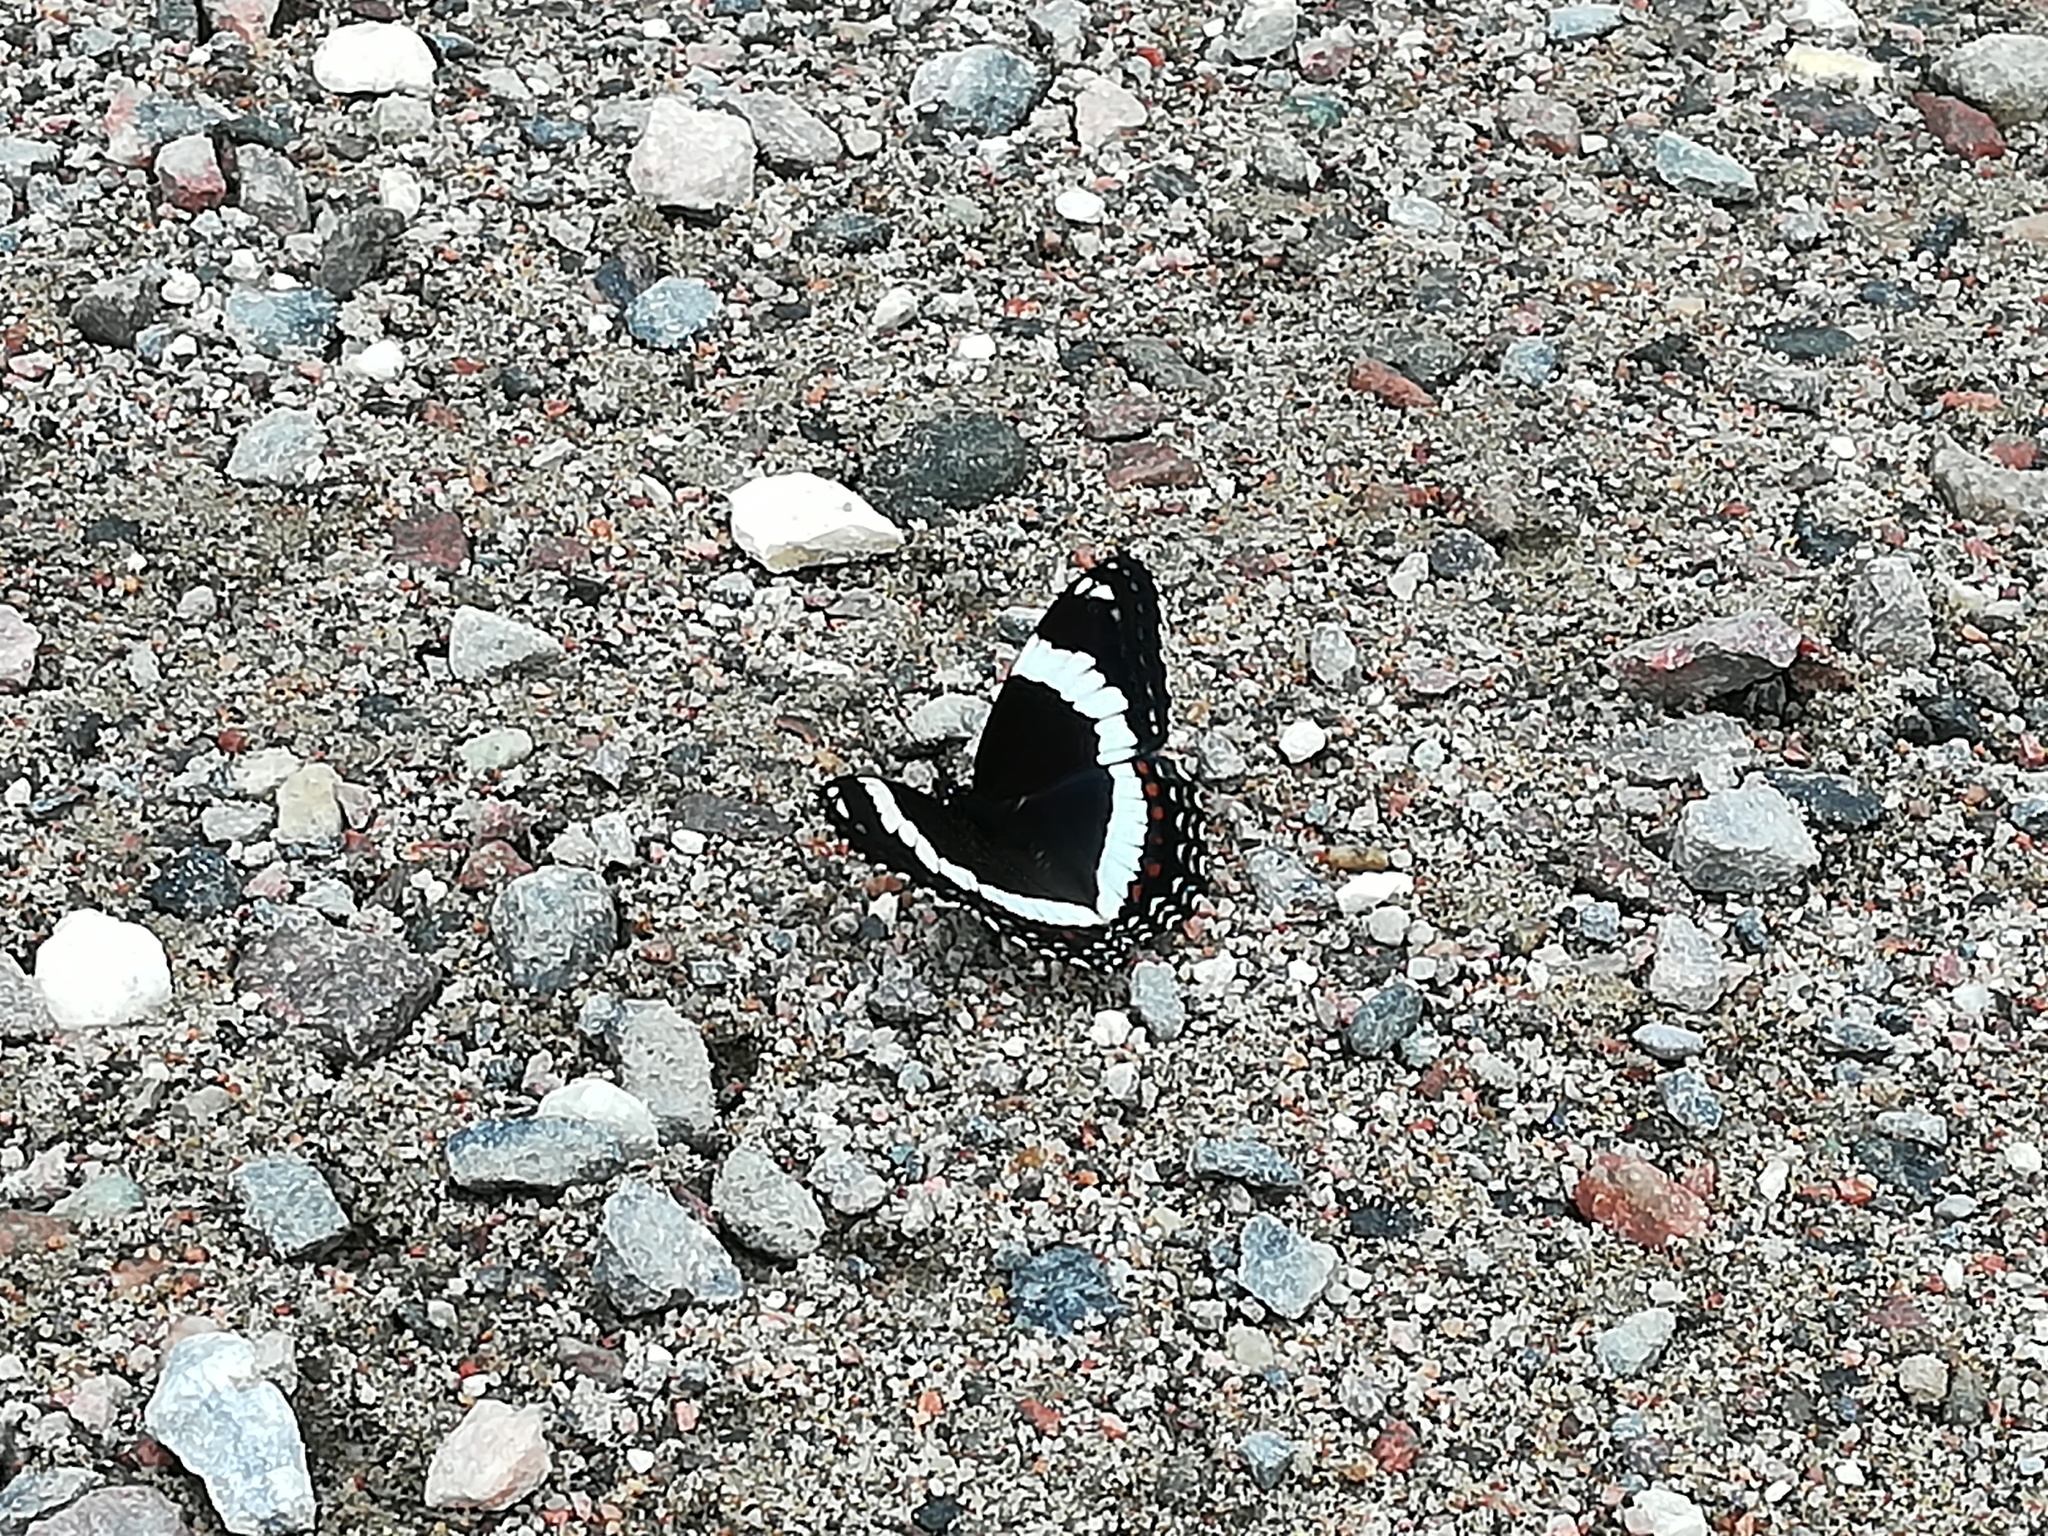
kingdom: Animalia
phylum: Arthropoda
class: Insecta
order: Lepidoptera
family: Nymphalidae
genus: Limenitis
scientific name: Limenitis arthemis
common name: Red-spotted admiral
